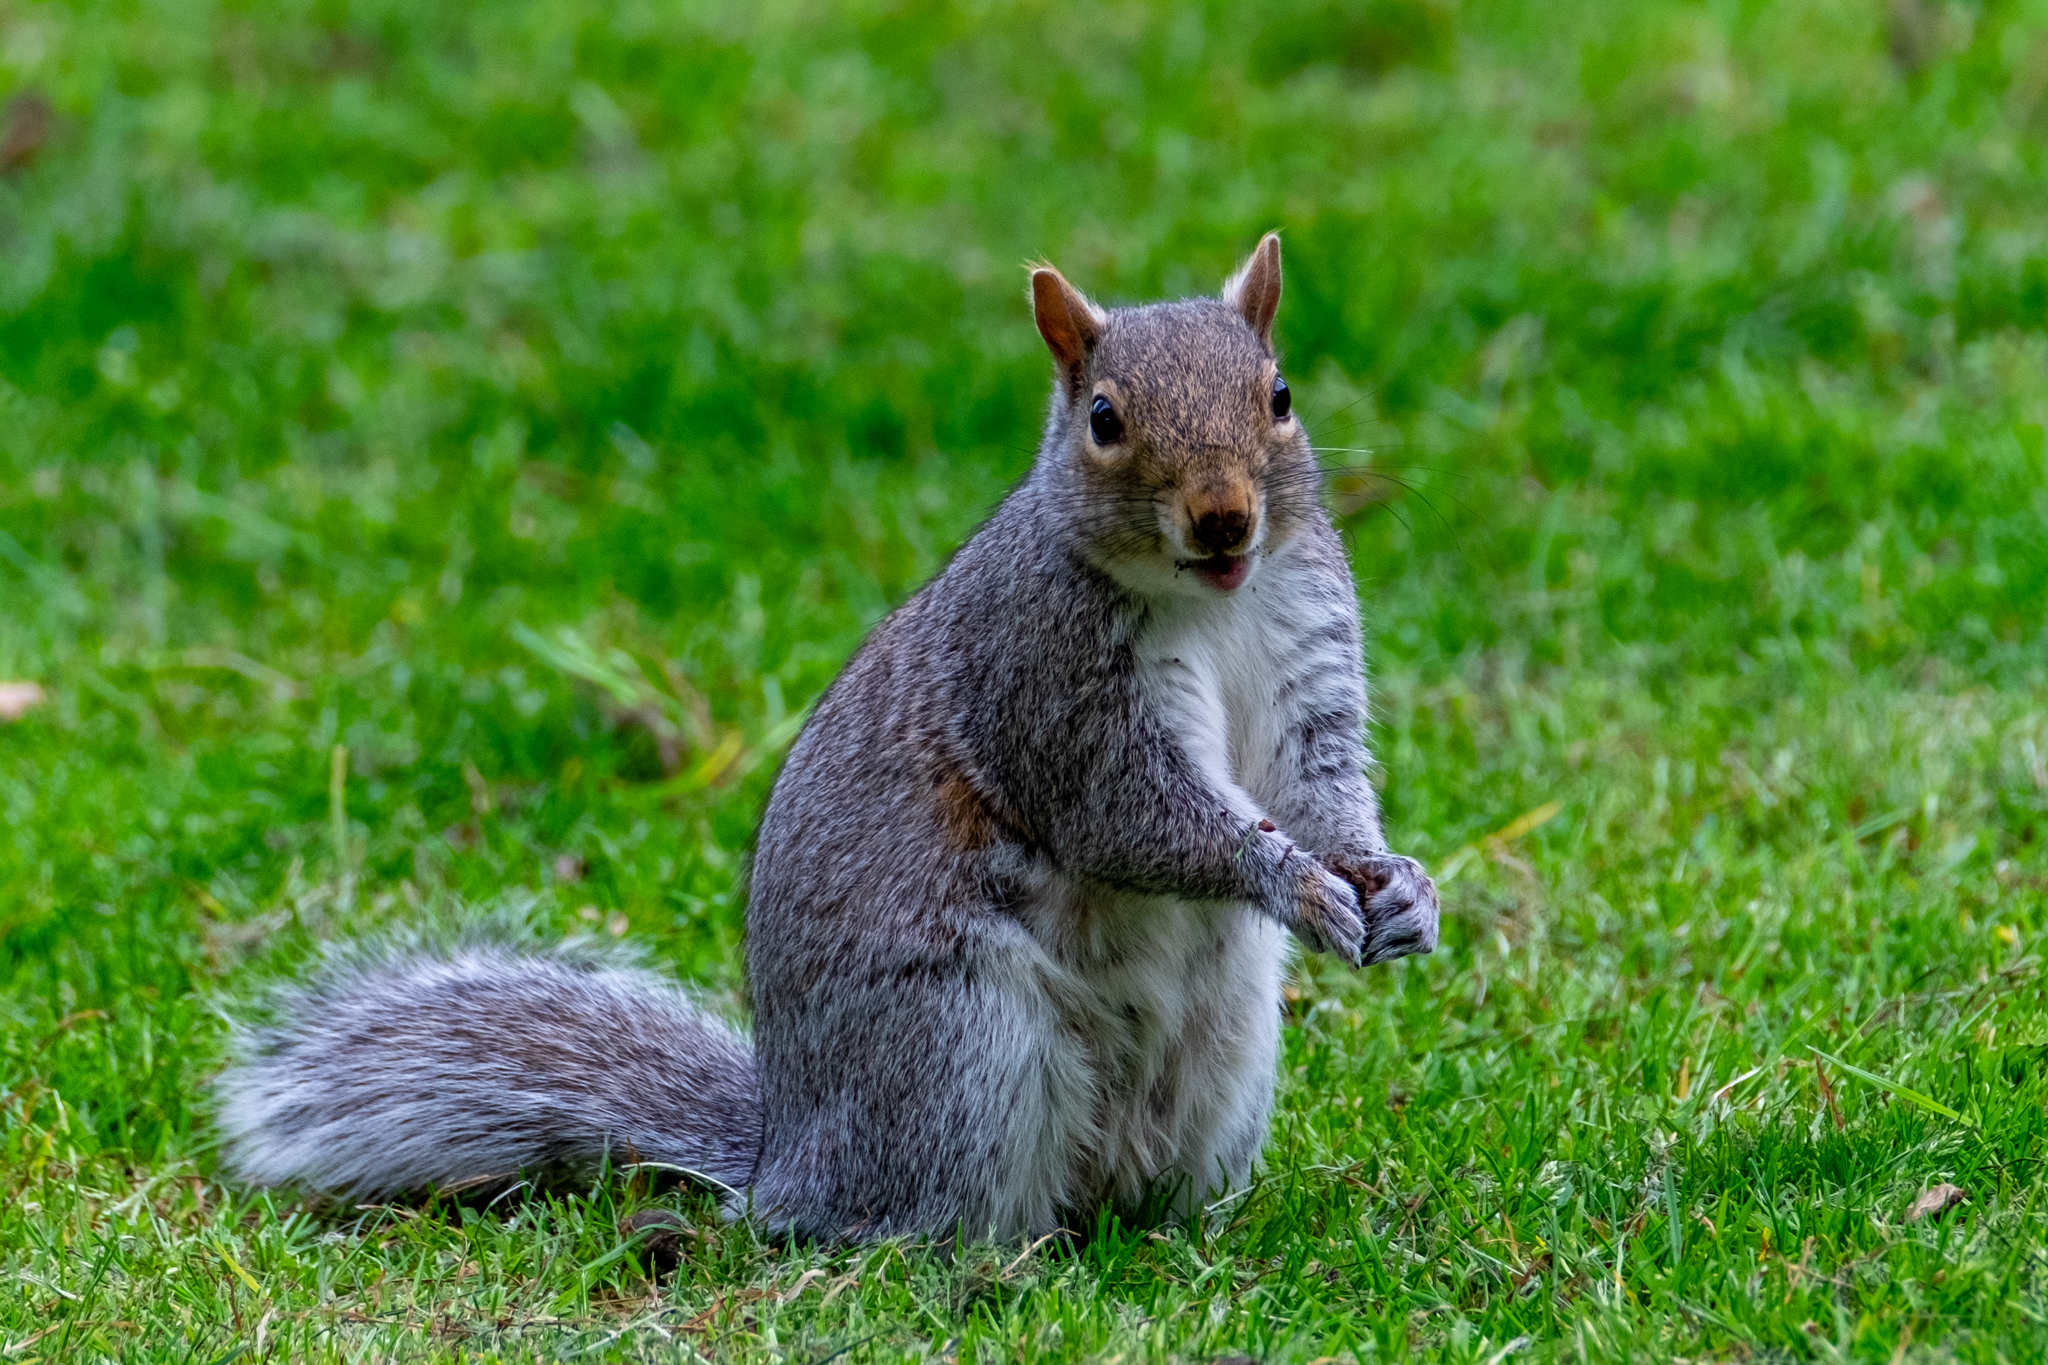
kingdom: Animalia
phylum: Chordata
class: Mammalia
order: Rodentia
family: Sciuridae
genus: Sciurus
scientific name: Sciurus carolinensis
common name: Eastern gray squirrel
